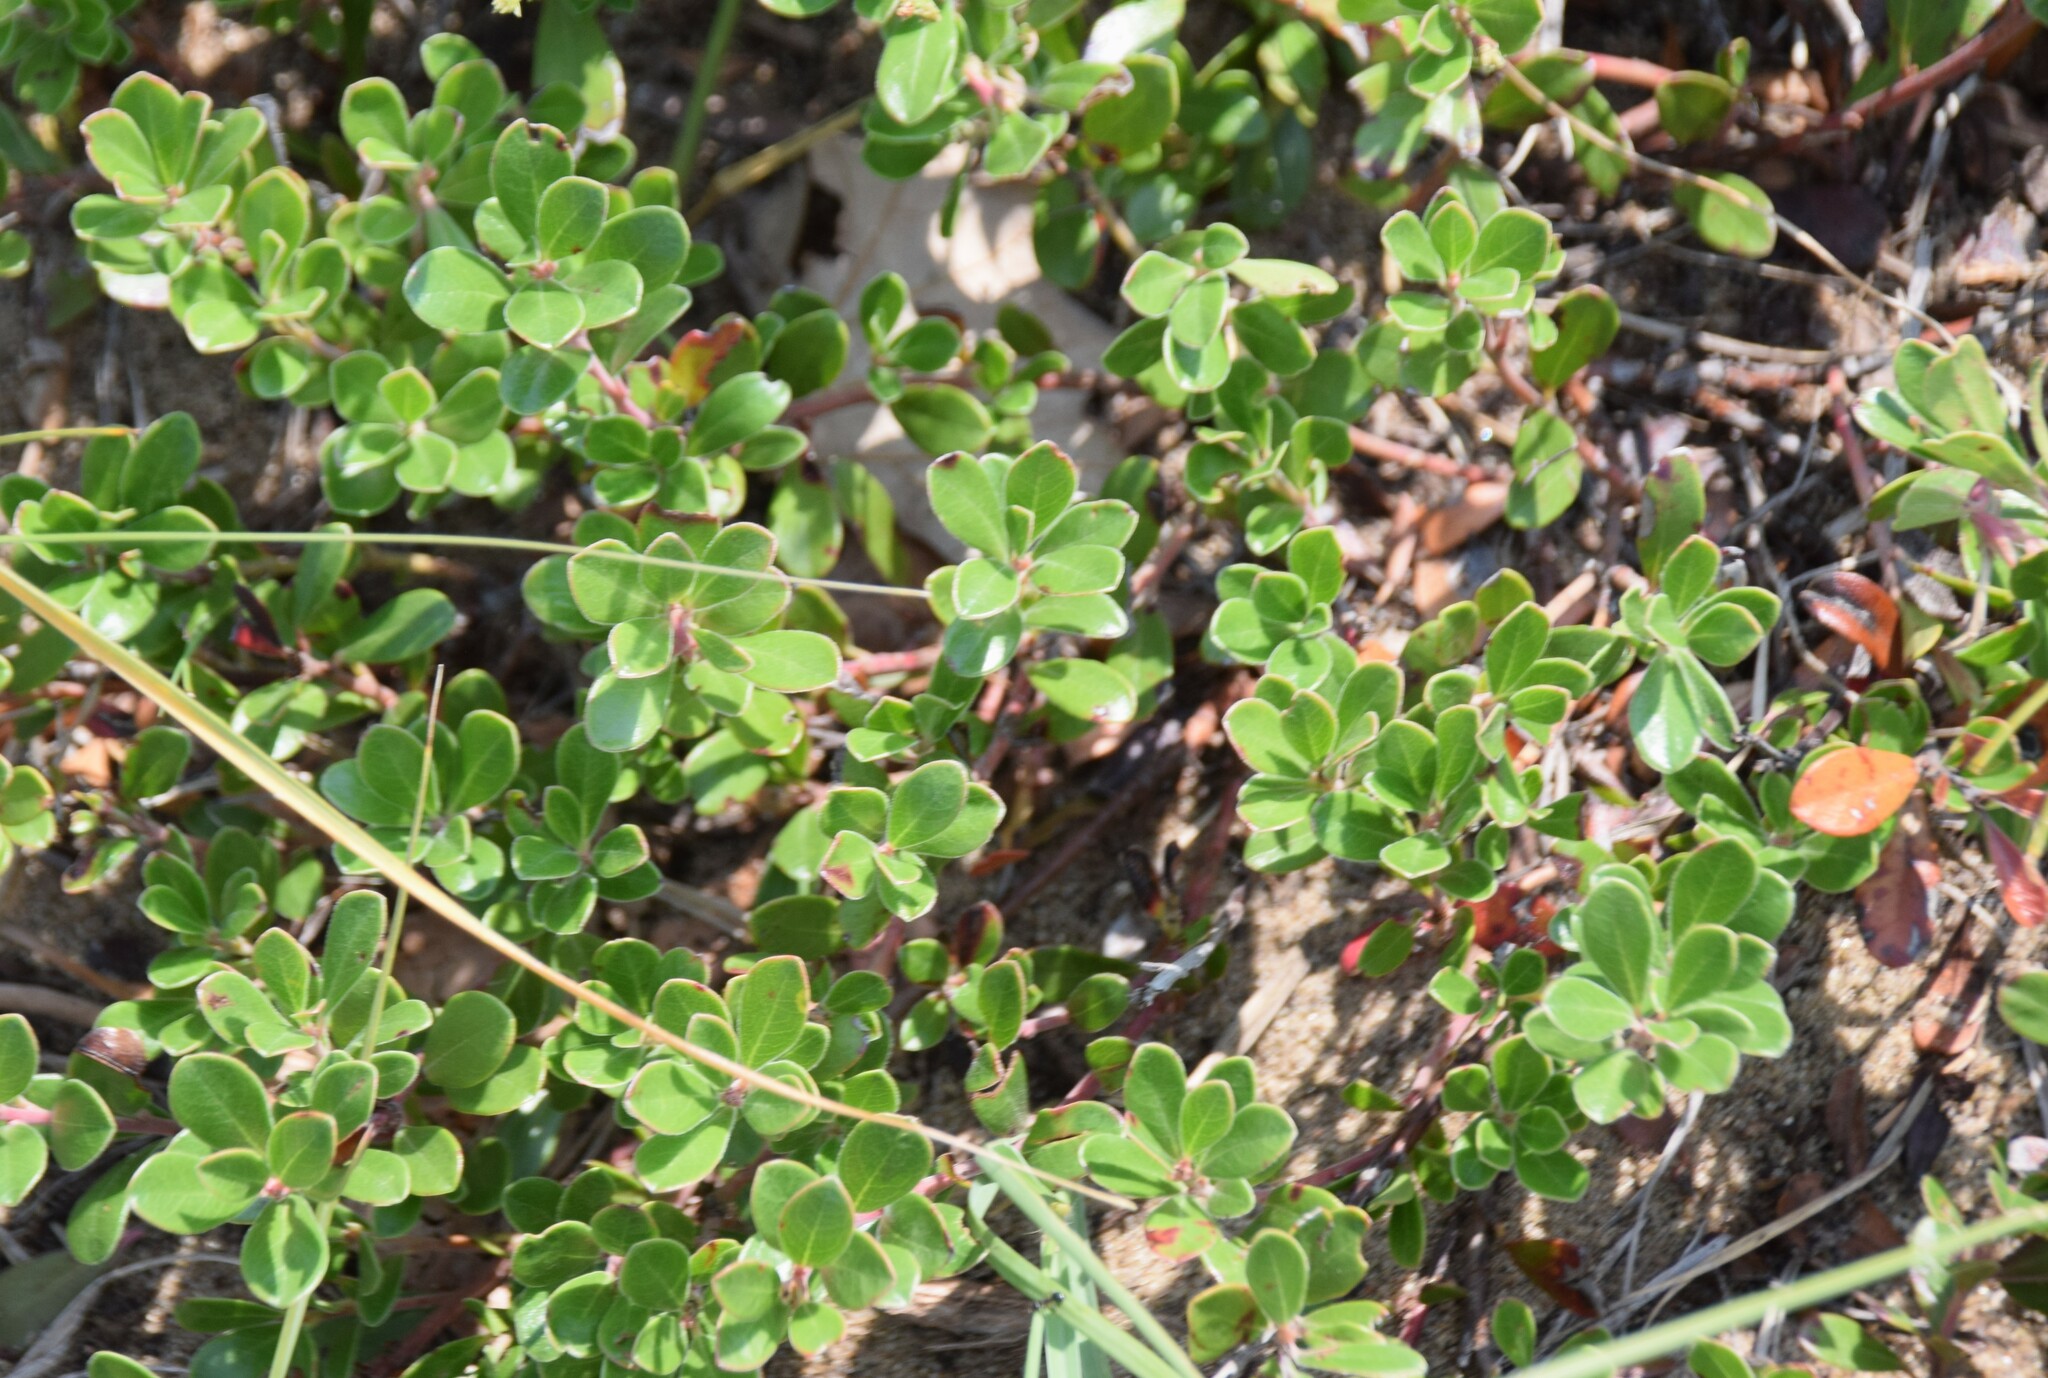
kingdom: Plantae
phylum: Tracheophyta
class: Magnoliopsida
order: Ericales
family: Ericaceae
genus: Arctostaphylos
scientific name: Arctostaphylos uva-ursi
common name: Bearberry
